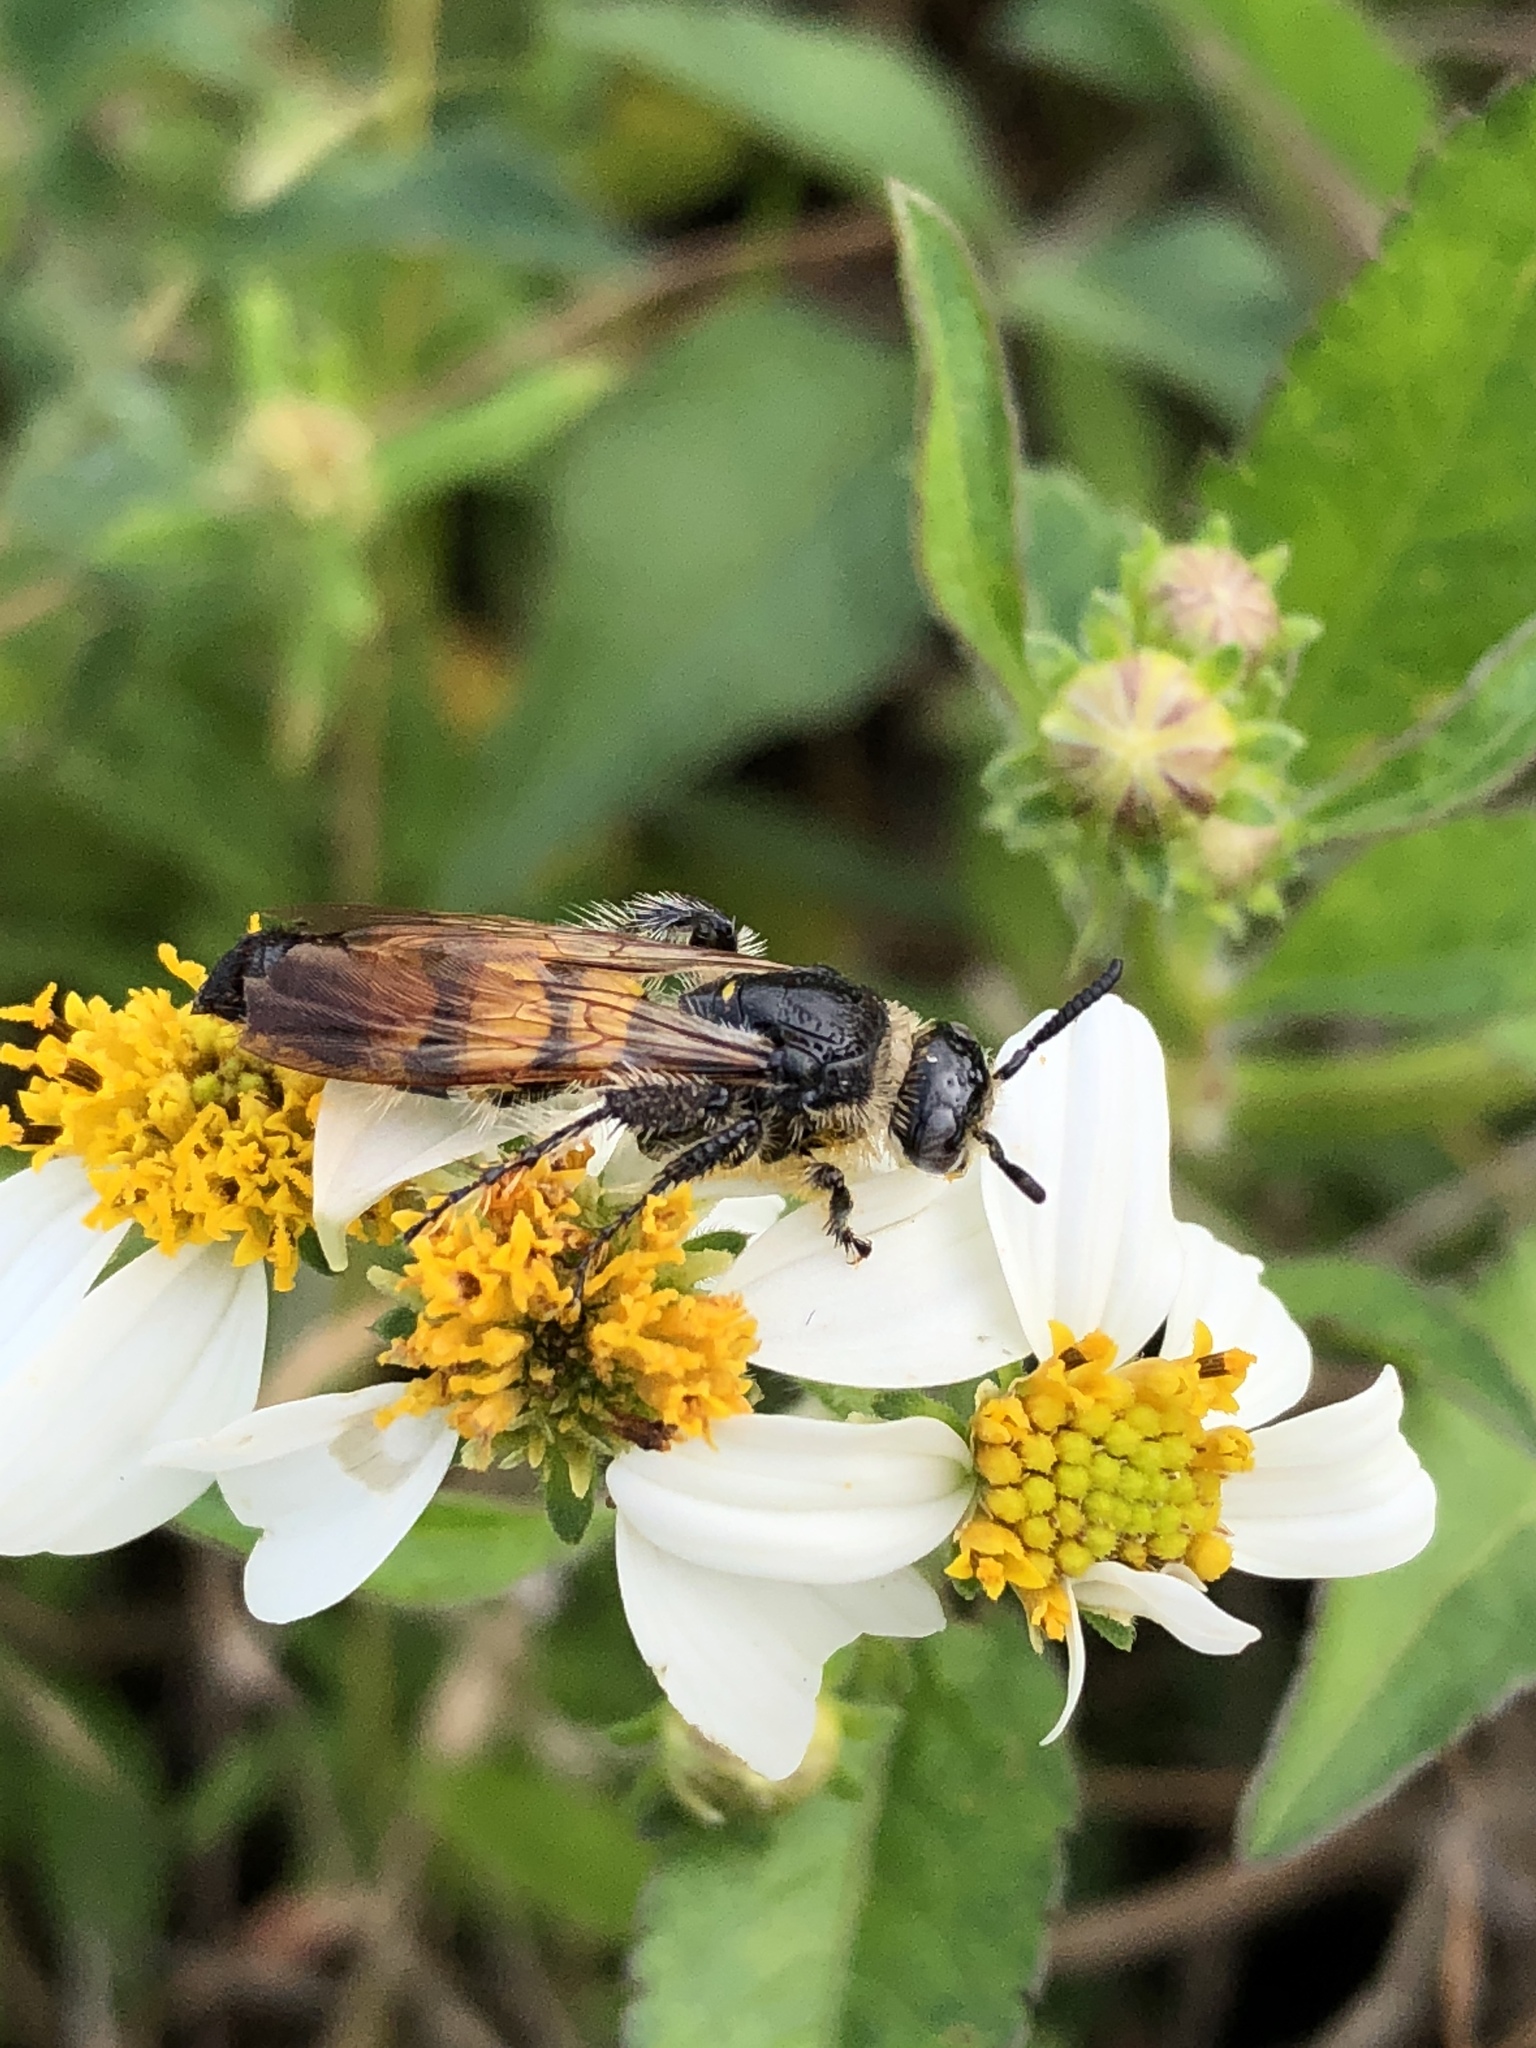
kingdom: Animalia
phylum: Arthropoda
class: Insecta
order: Hymenoptera
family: Scoliidae
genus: Dielis
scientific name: Dielis
